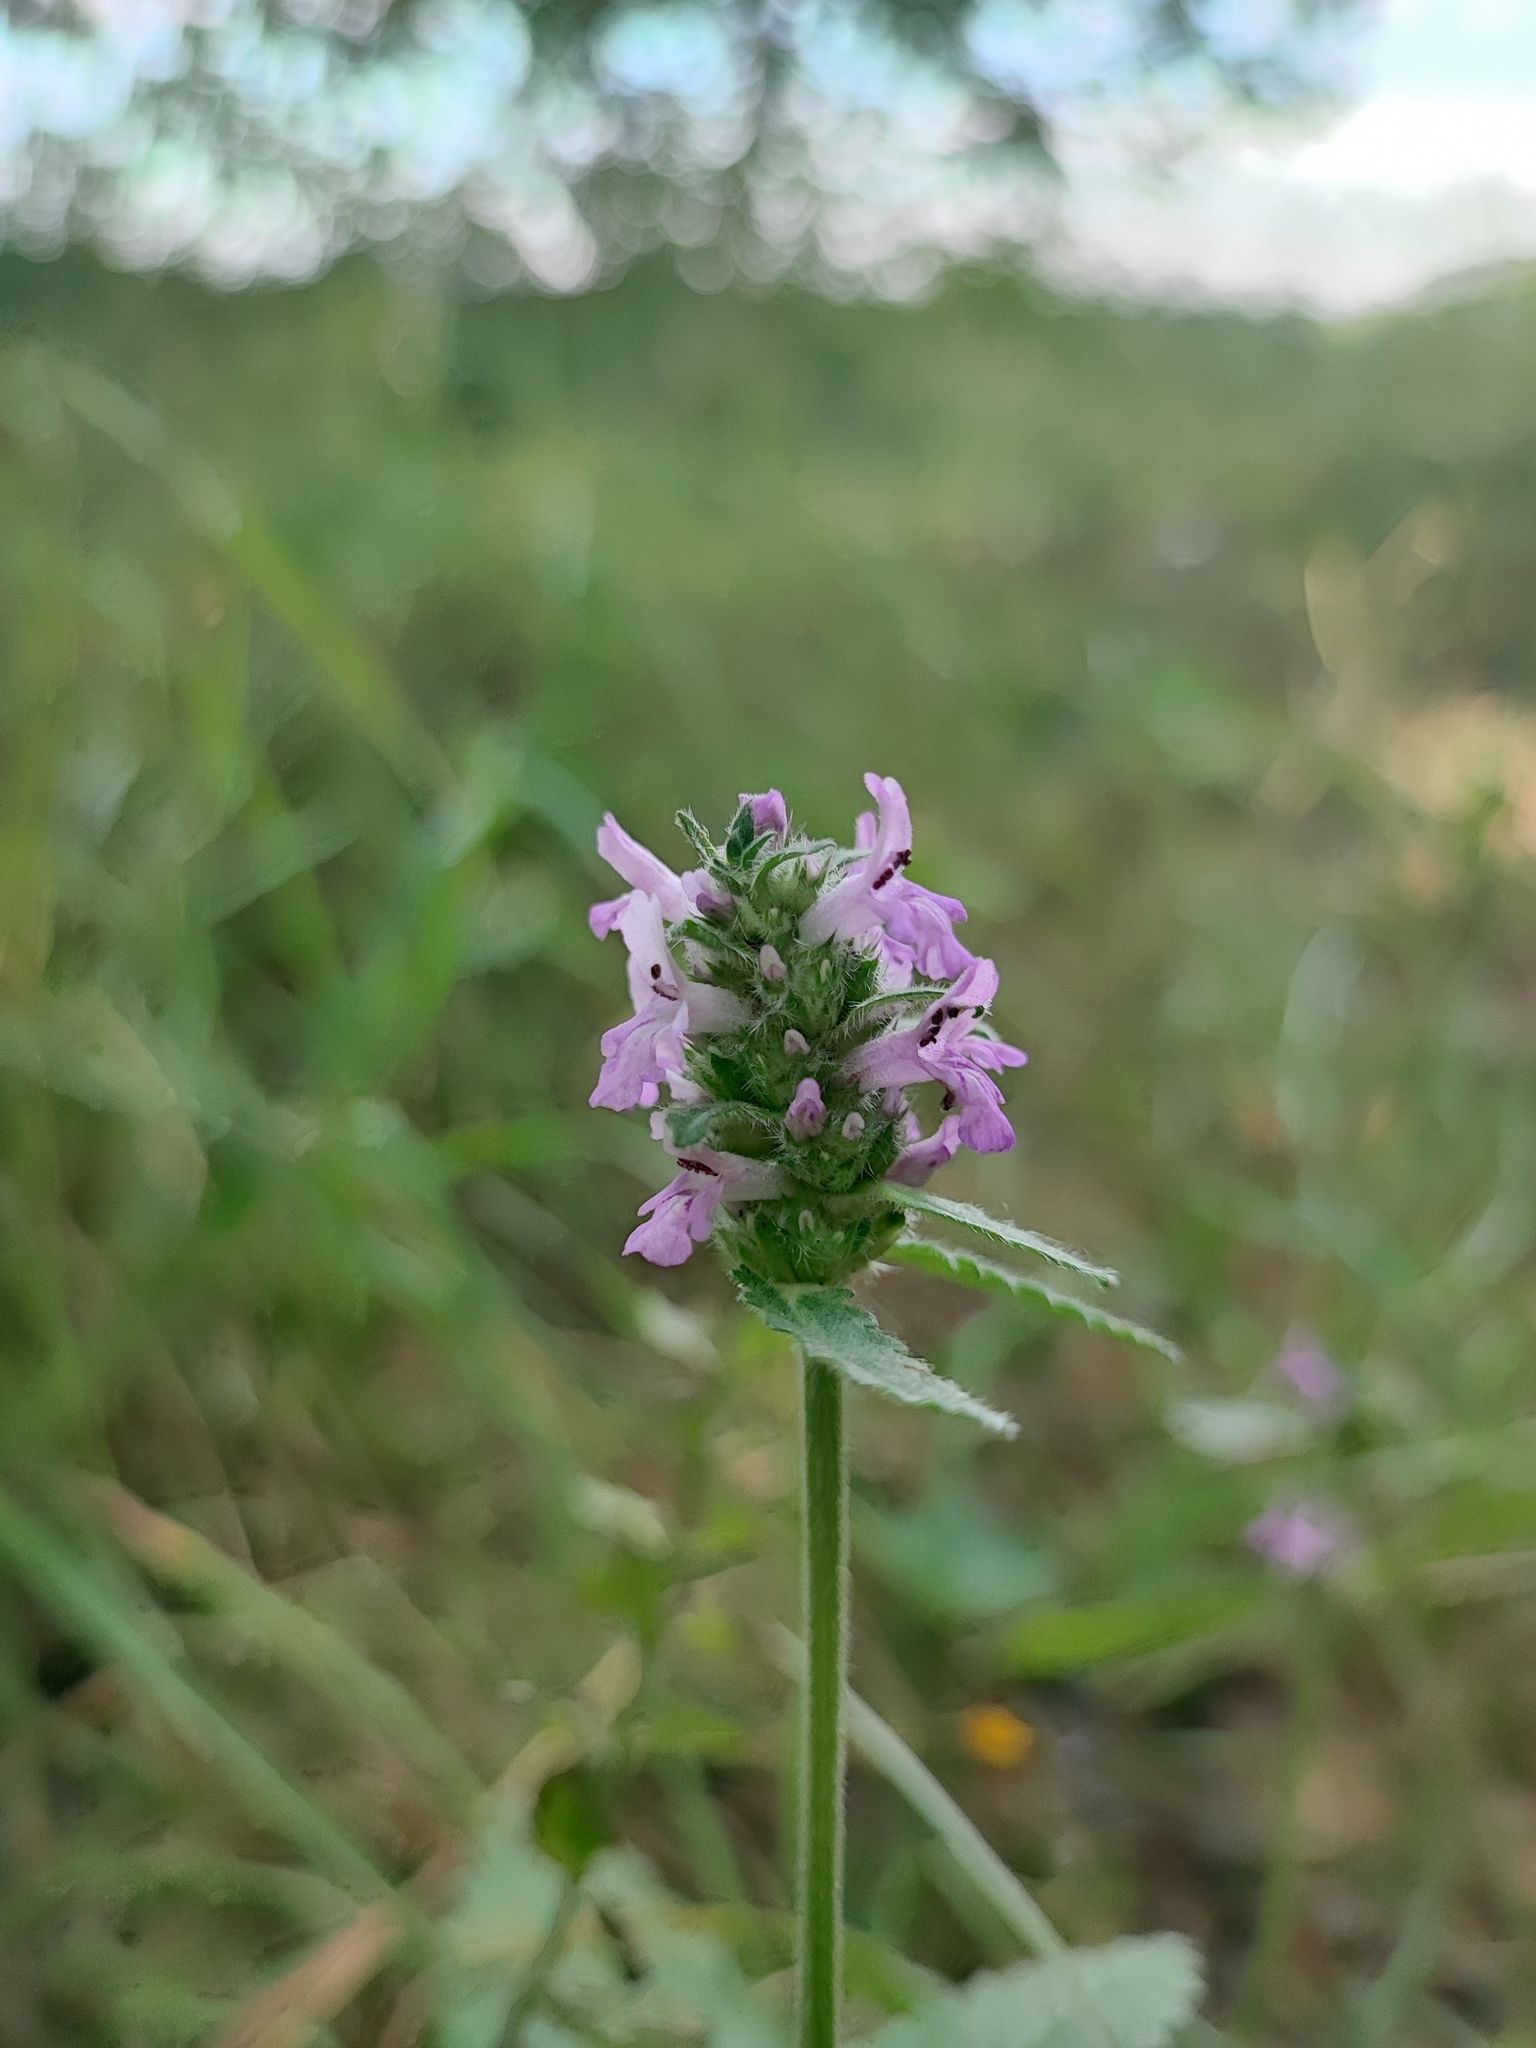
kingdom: Plantae
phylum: Tracheophyta
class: Magnoliopsida
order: Lamiales
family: Lamiaceae
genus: Betonica
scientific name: Betonica officinalis
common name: Bishop's-wort
